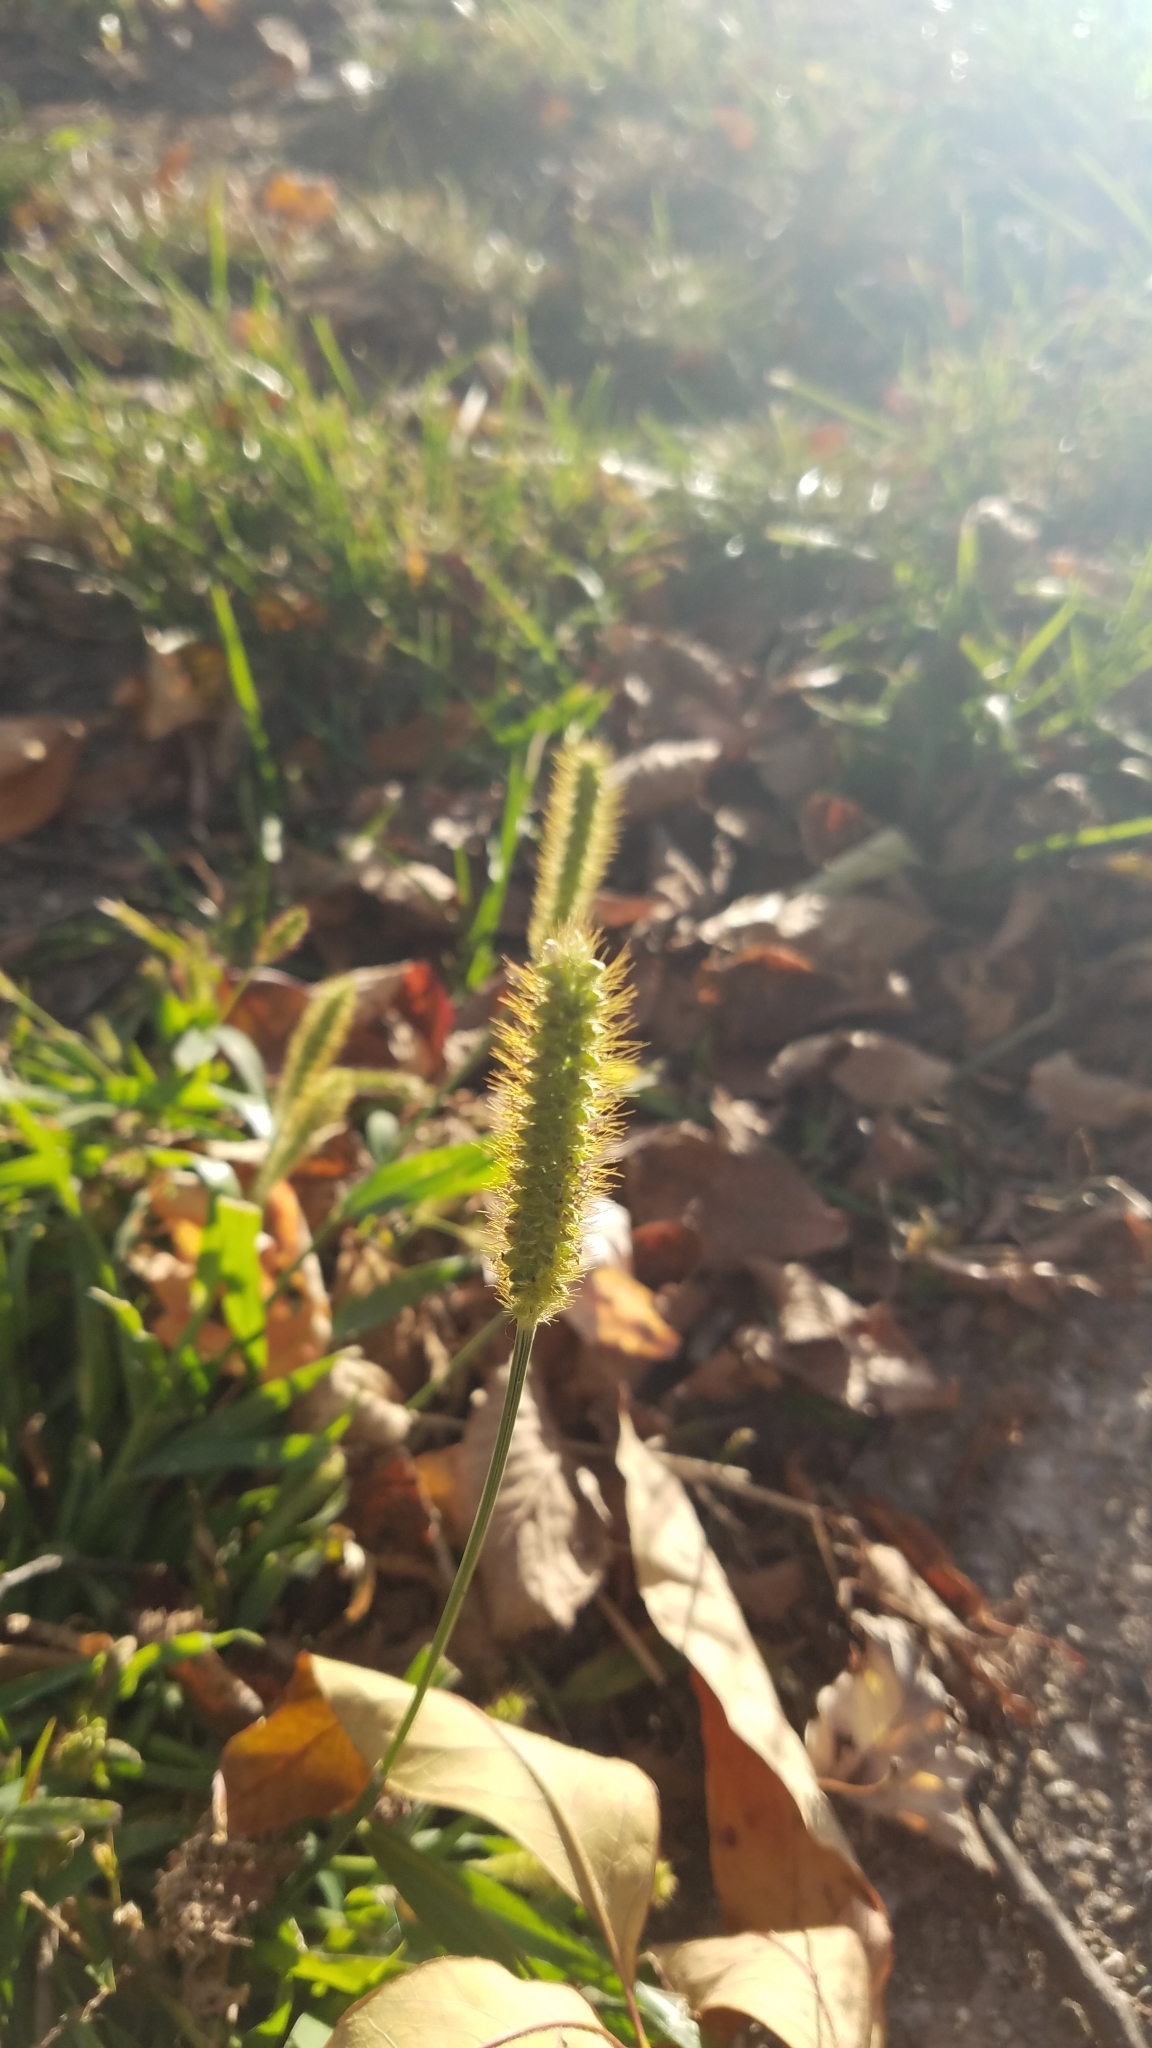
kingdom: Plantae
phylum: Tracheophyta
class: Liliopsida
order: Poales
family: Poaceae
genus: Setaria
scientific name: Setaria pumila
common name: Yellow bristle-grass
